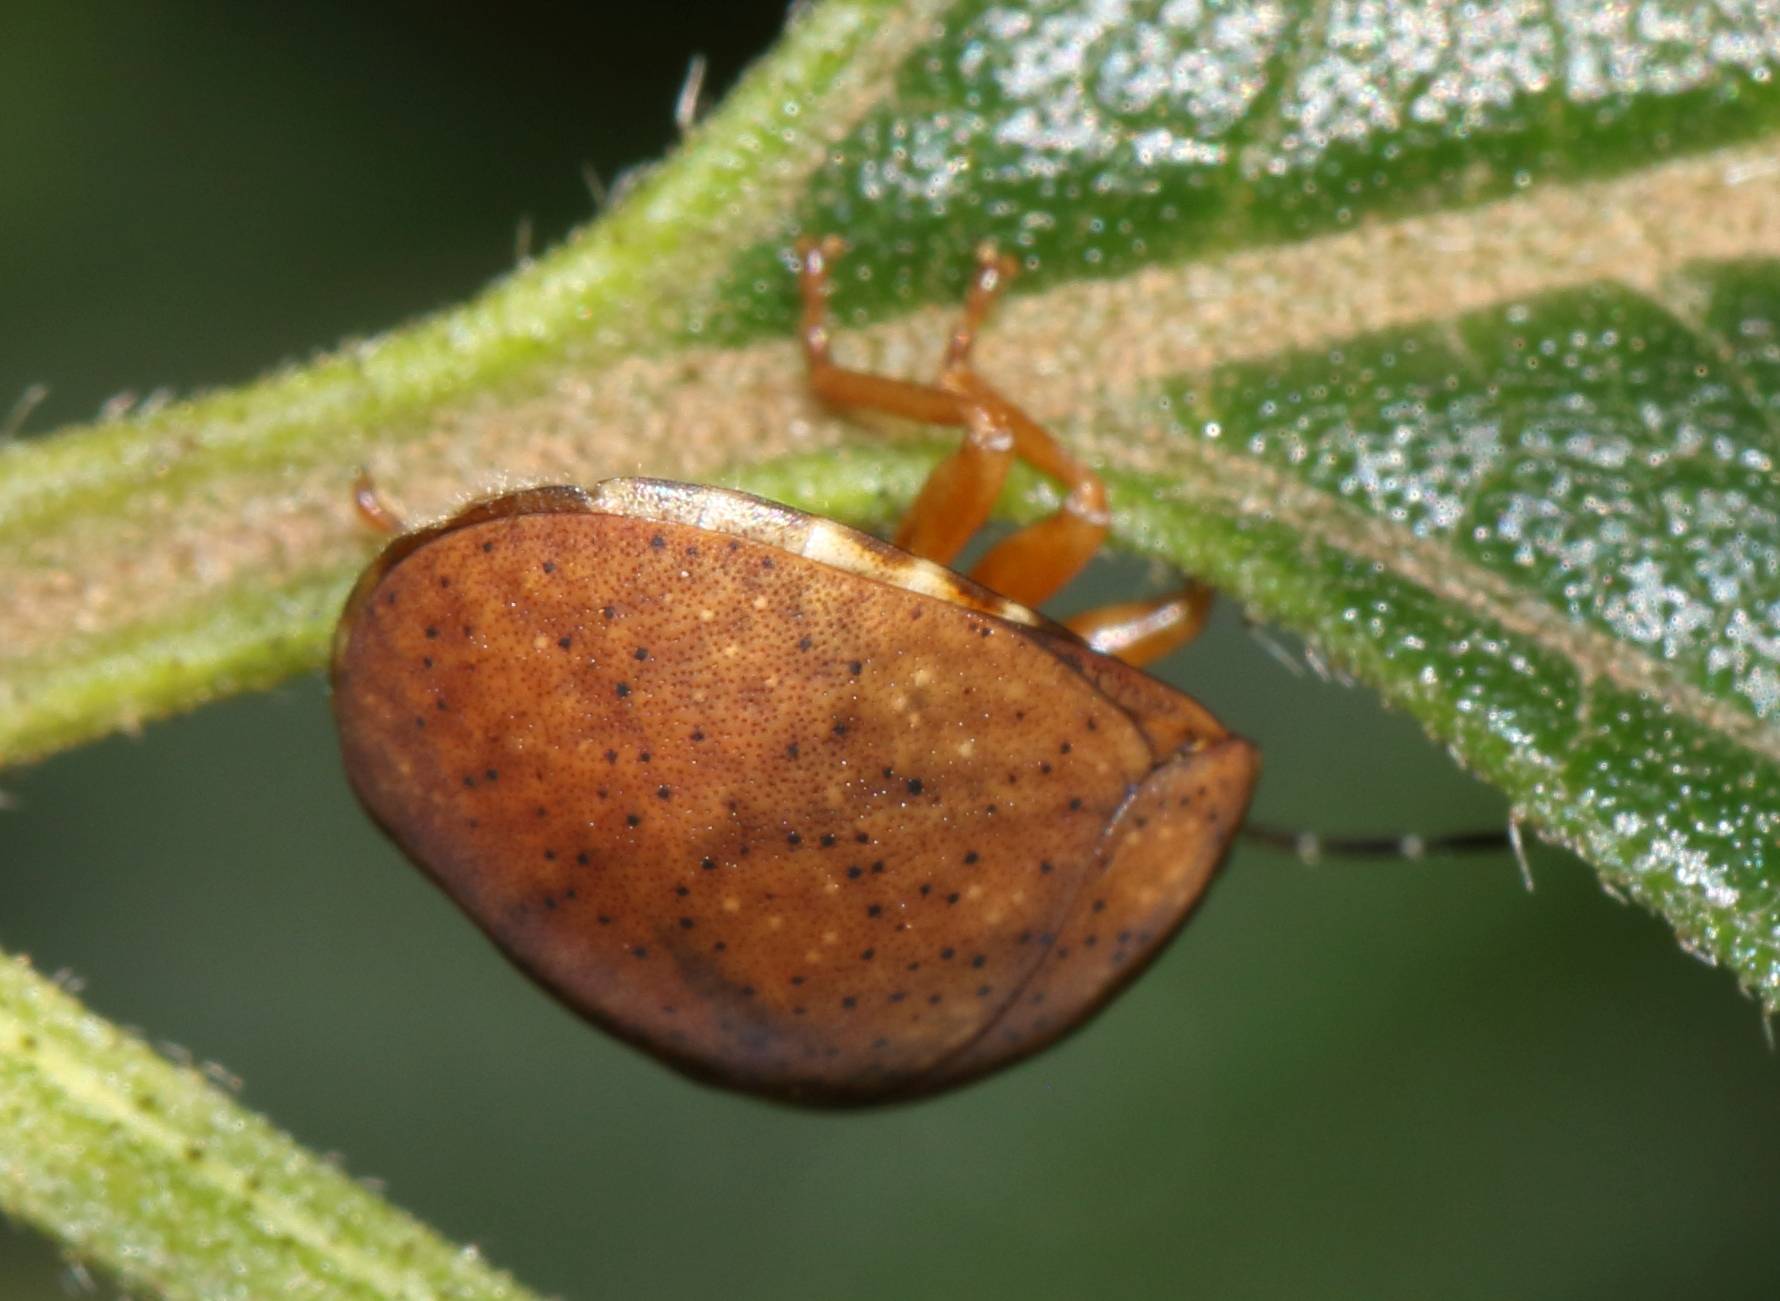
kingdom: Animalia
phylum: Arthropoda
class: Insecta
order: Hemiptera
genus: Steganocerus
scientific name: Steganocerus multipunctatus
